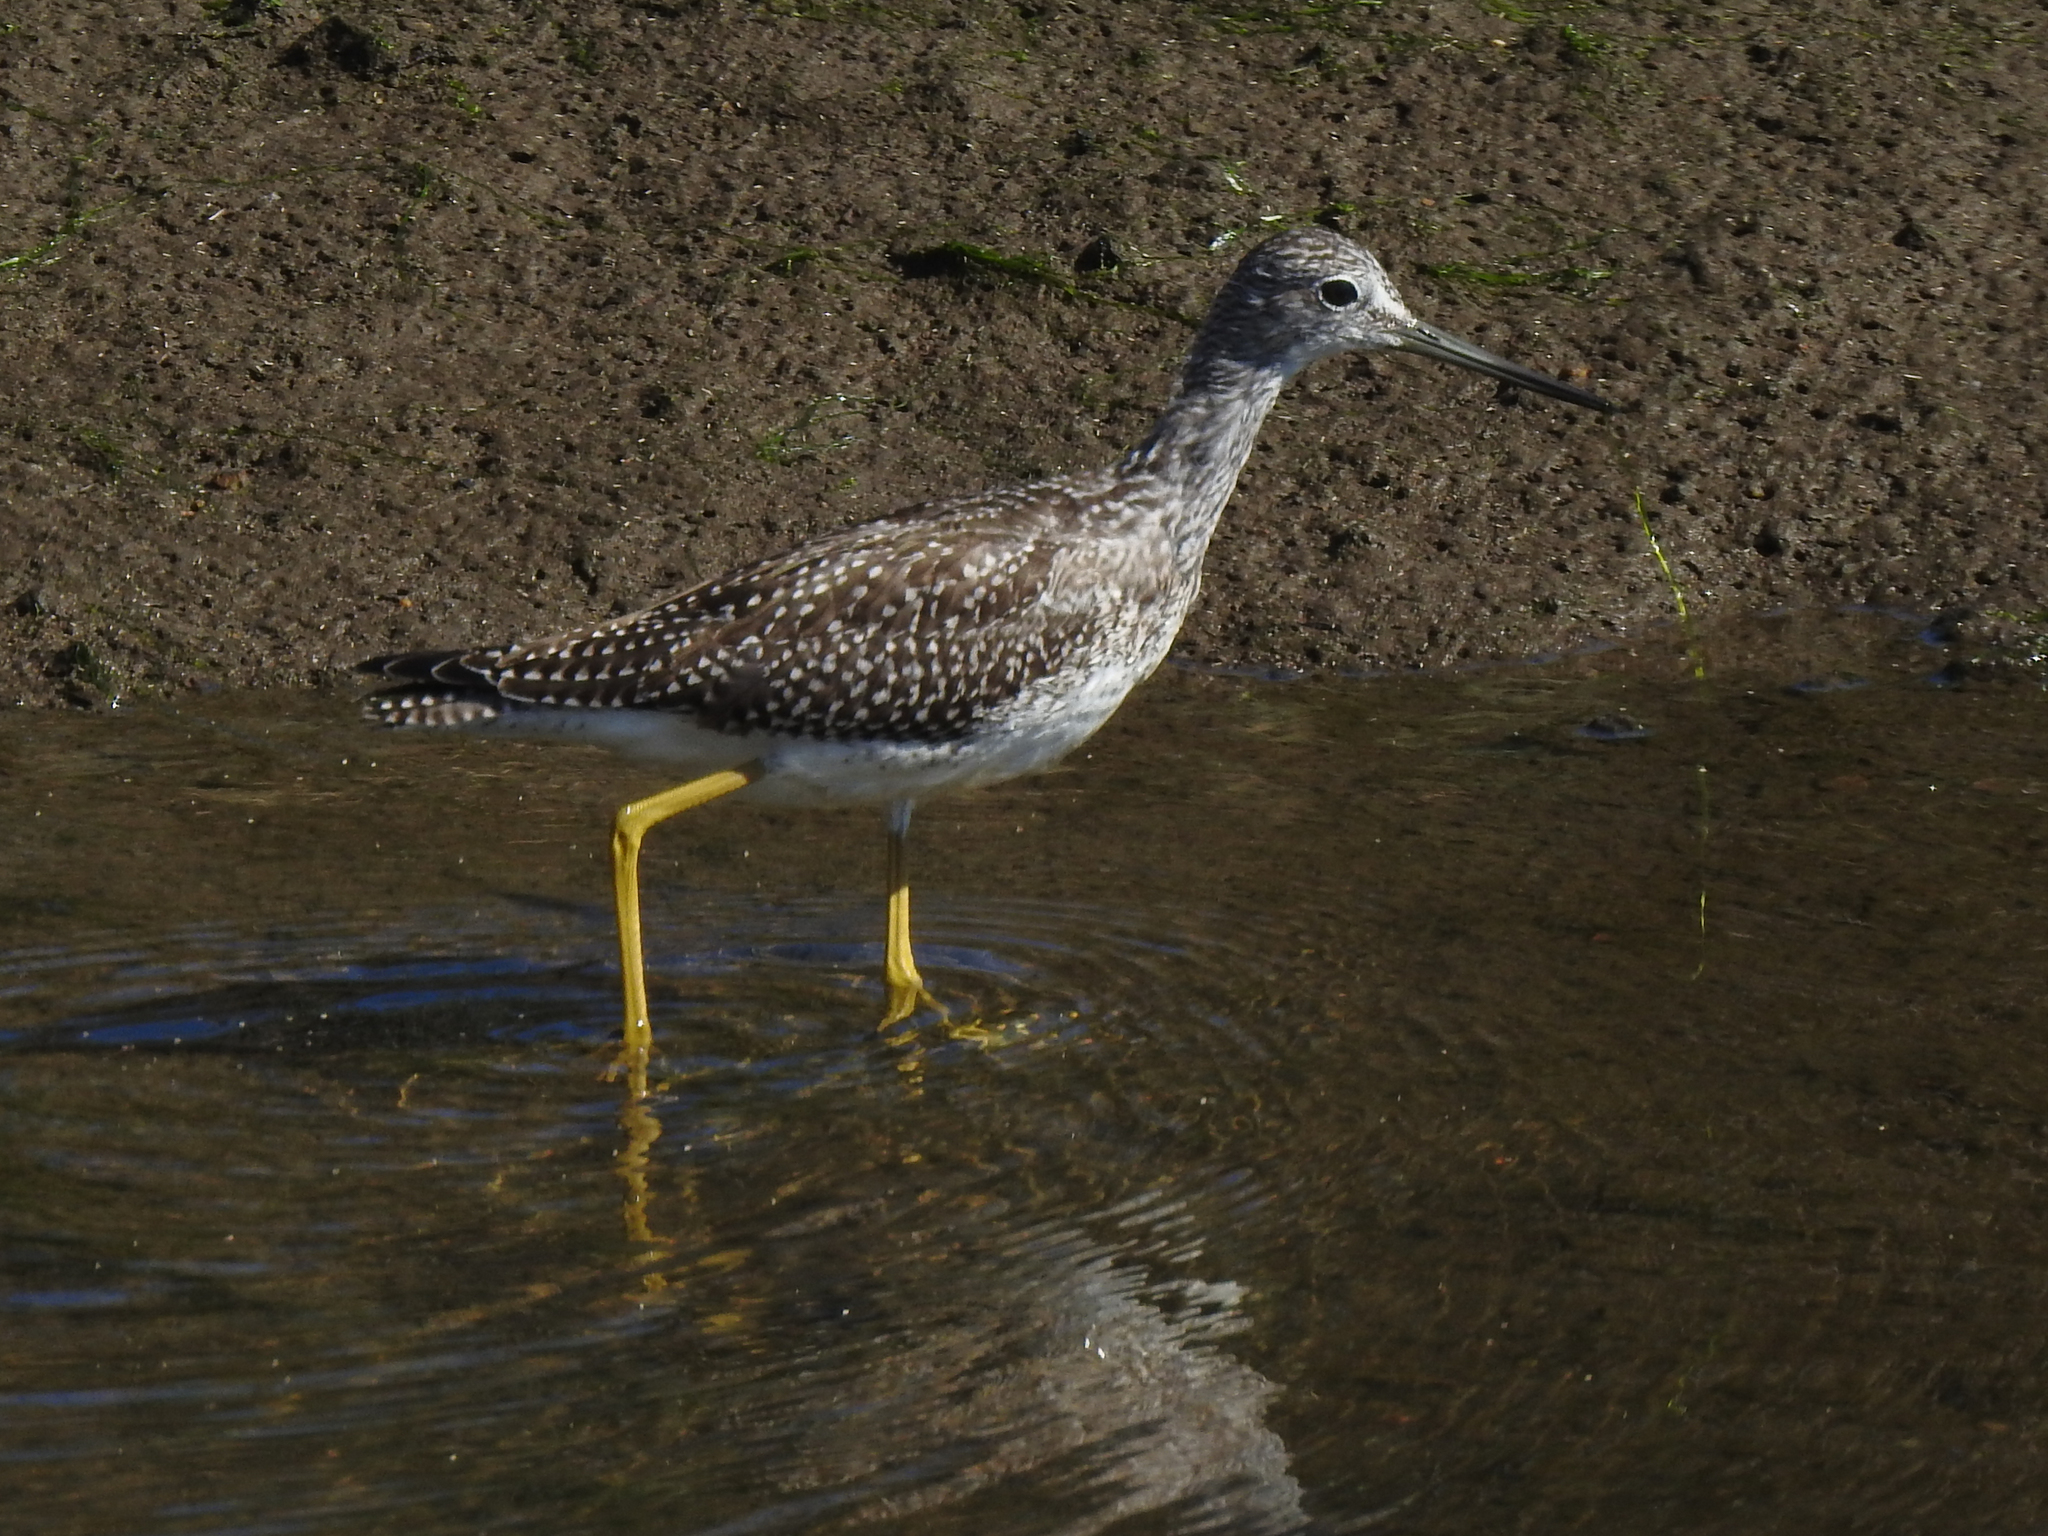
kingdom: Animalia
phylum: Chordata
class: Aves
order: Charadriiformes
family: Scolopacidae
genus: Tringa
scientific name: Tringa melanoleuca
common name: Greater yellowlegs
